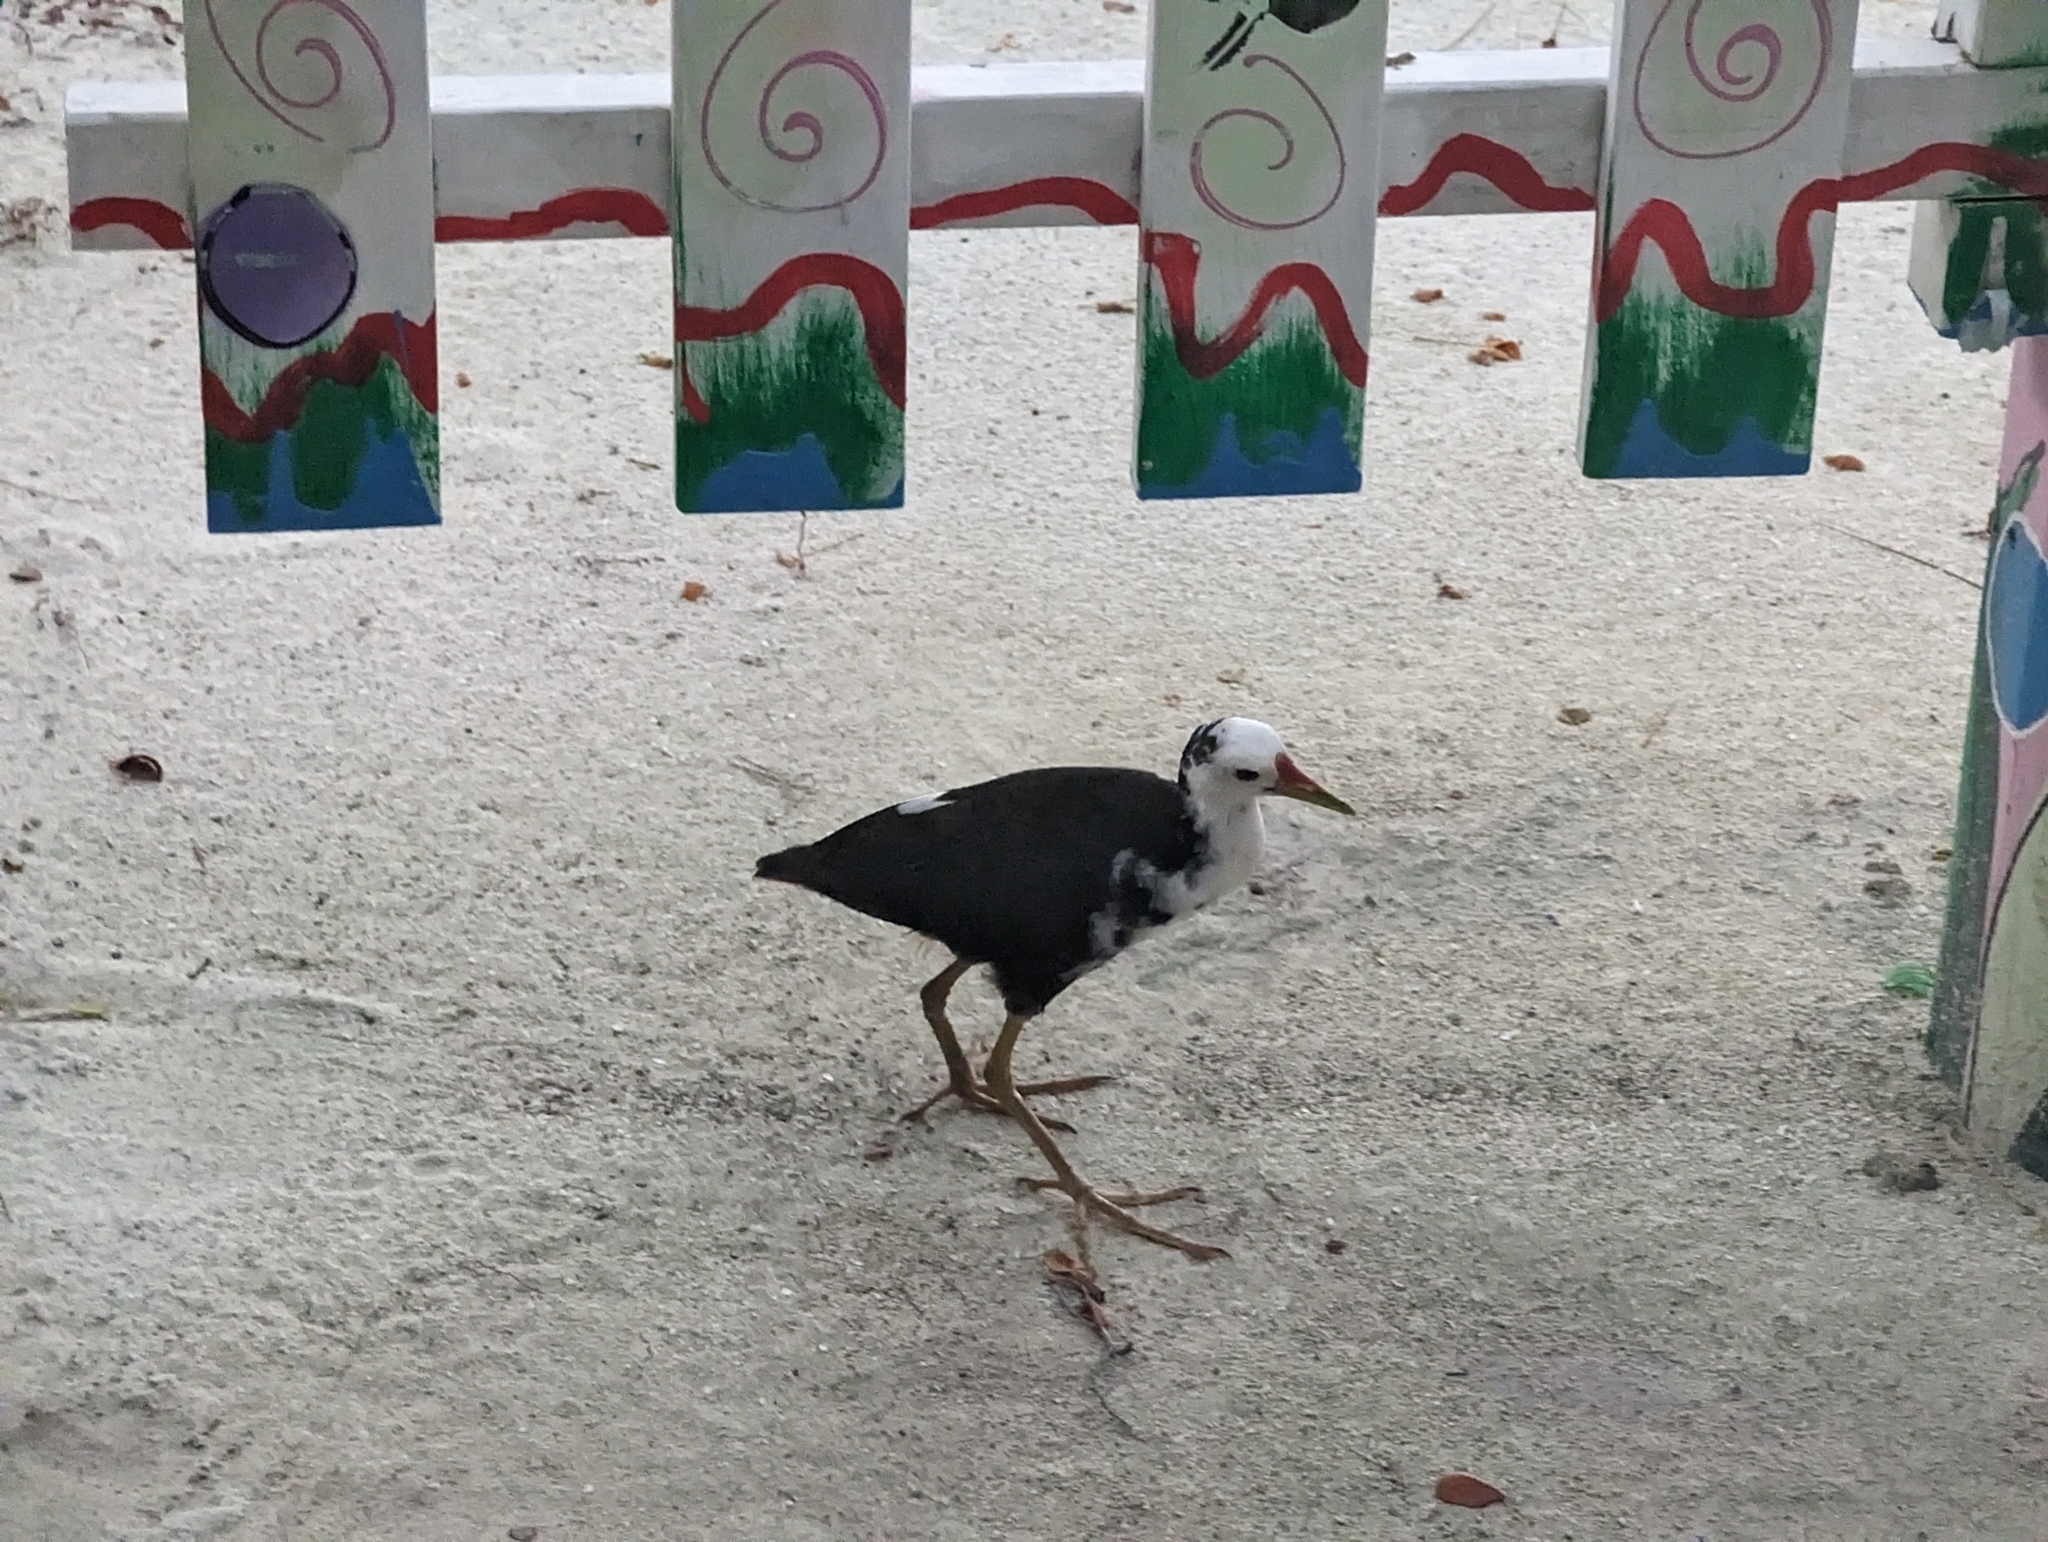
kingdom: Animalia
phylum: Chordata
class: Aves
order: Gruiformes
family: Rallidae
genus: Amaurornis
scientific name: Amaurornis phoenicurus
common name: White-breasted waterhen
